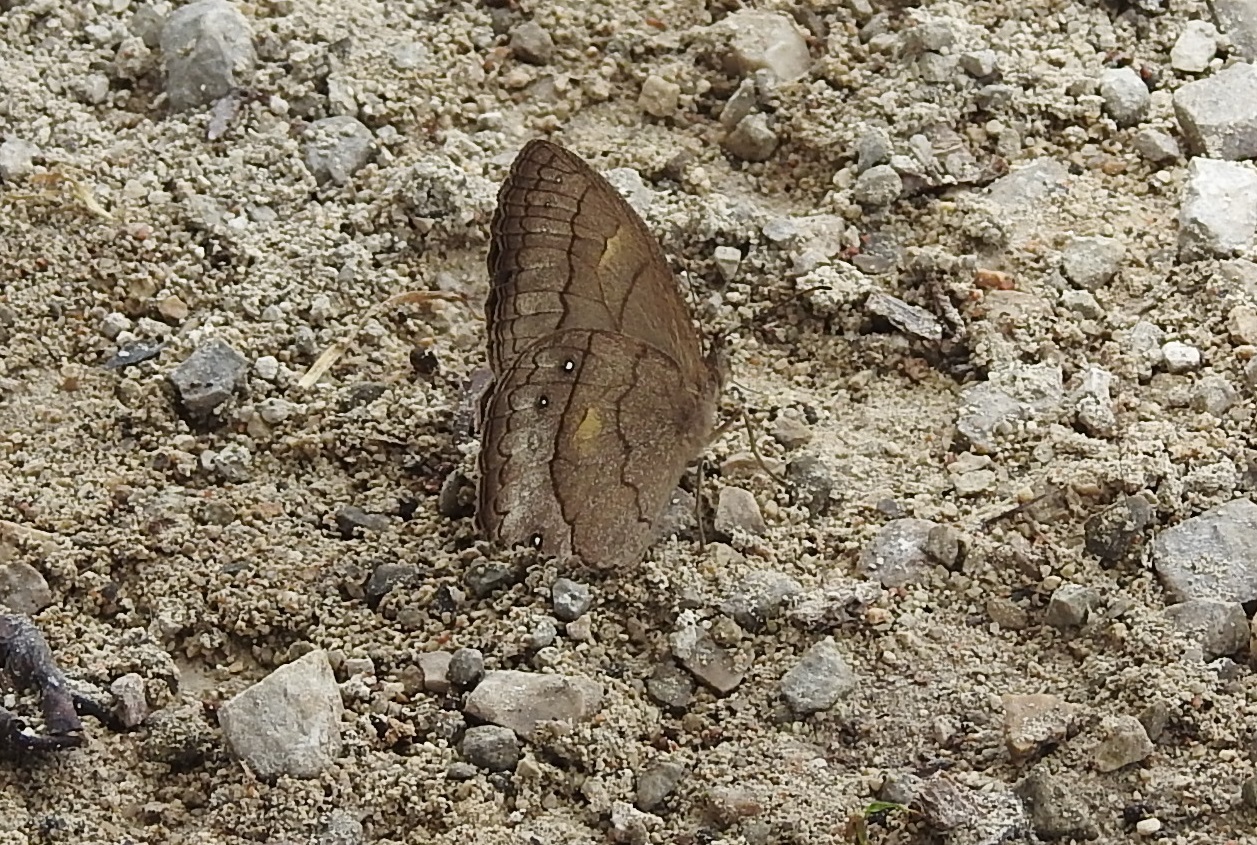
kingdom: Animalia
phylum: Arthropoda
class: Insecta
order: Lepidoptera
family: Nymphalidae
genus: Taygetina
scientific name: Taygetina kerea
